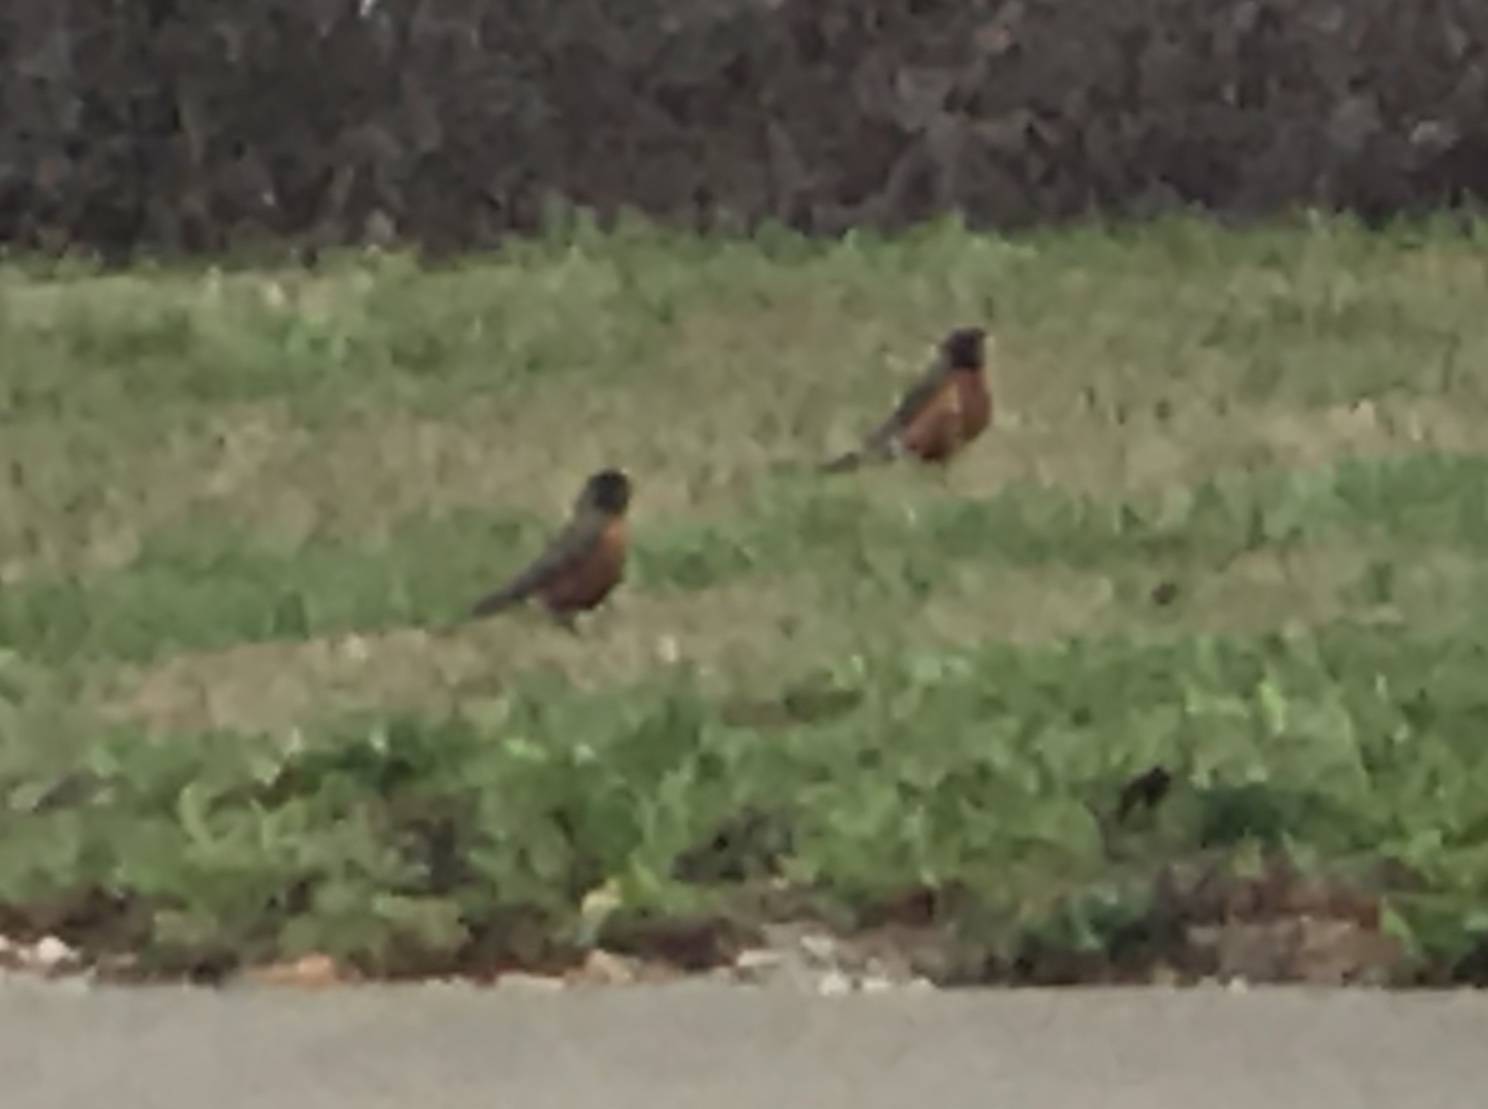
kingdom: Animalia
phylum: Chordata
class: Aves
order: Passeriformes
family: Turdidae
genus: Turdus
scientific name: Turdus migratorius
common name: American robin
